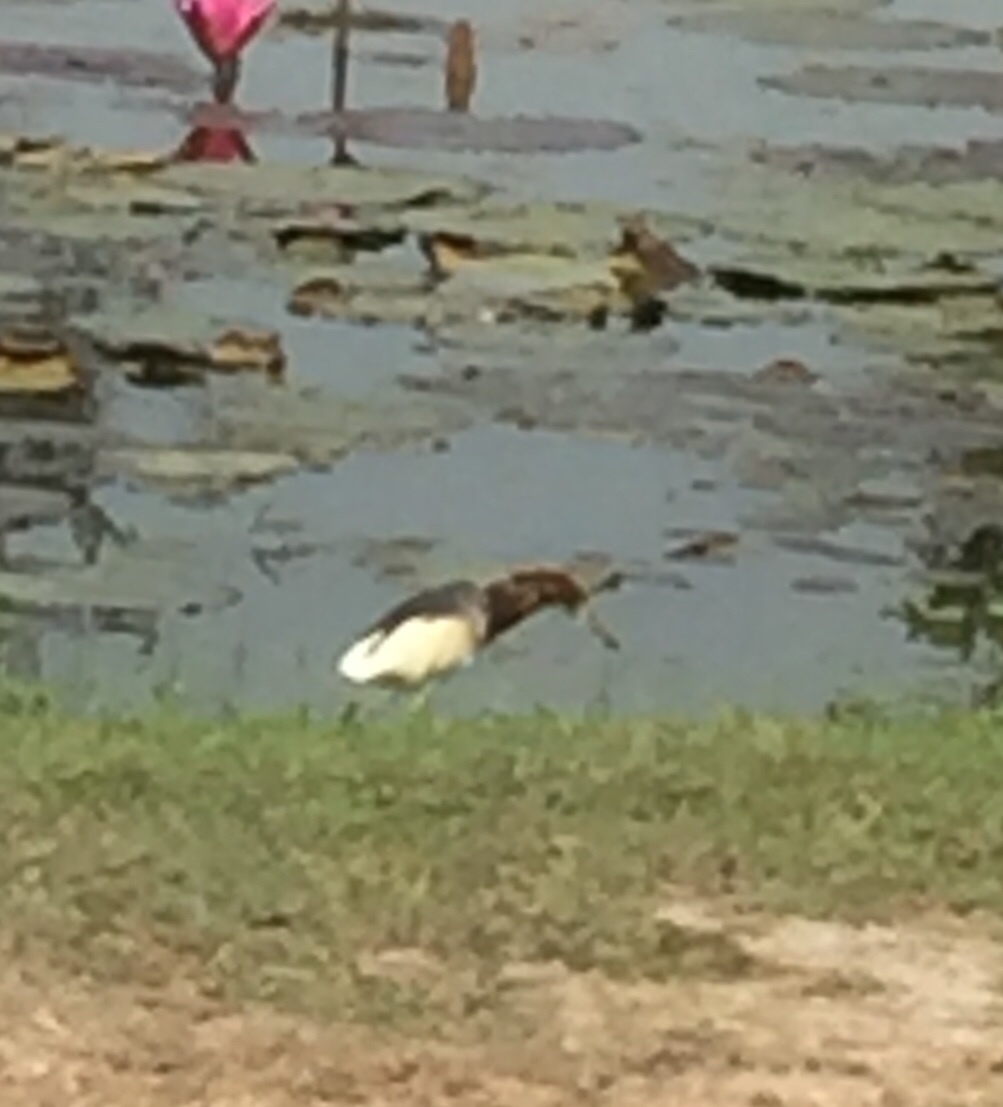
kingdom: Animalia
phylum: Chordata
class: Aves
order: Pelecaniformes
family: Ardeidae
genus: Ardeola
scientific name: Ardeola bacchus
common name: Chinese pond heron
